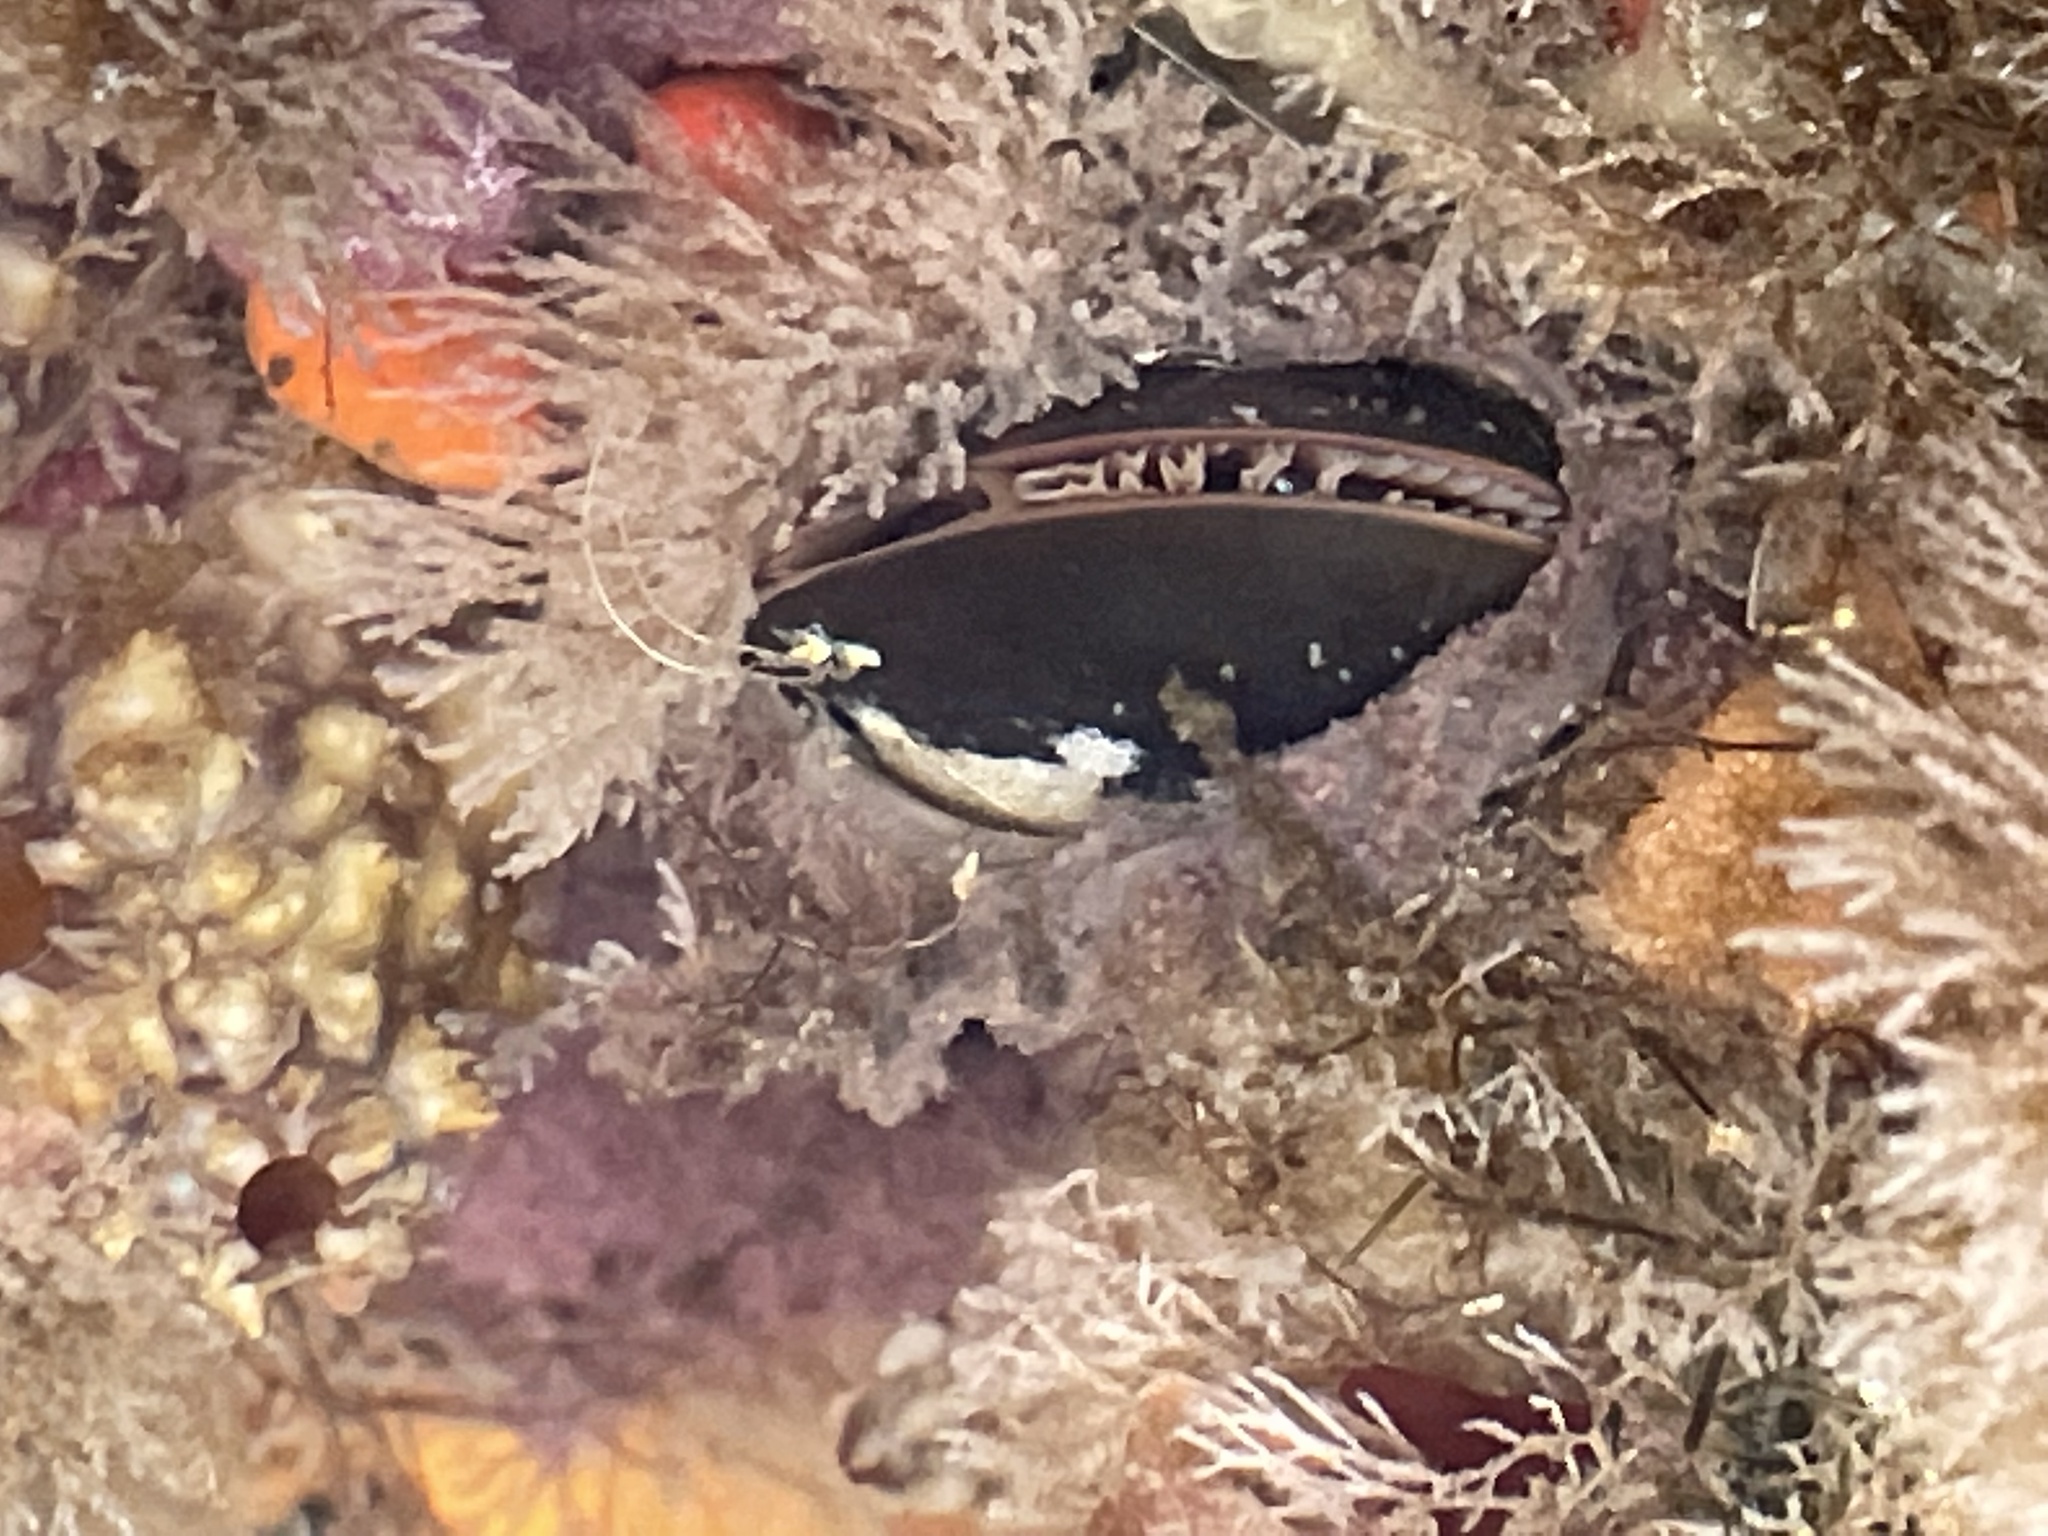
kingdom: Animalia
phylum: Mollusca
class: Bivalvia
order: Mytilida
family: Mytilidae
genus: Mytilus
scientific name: Mytilus edulis
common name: Blue mussel
